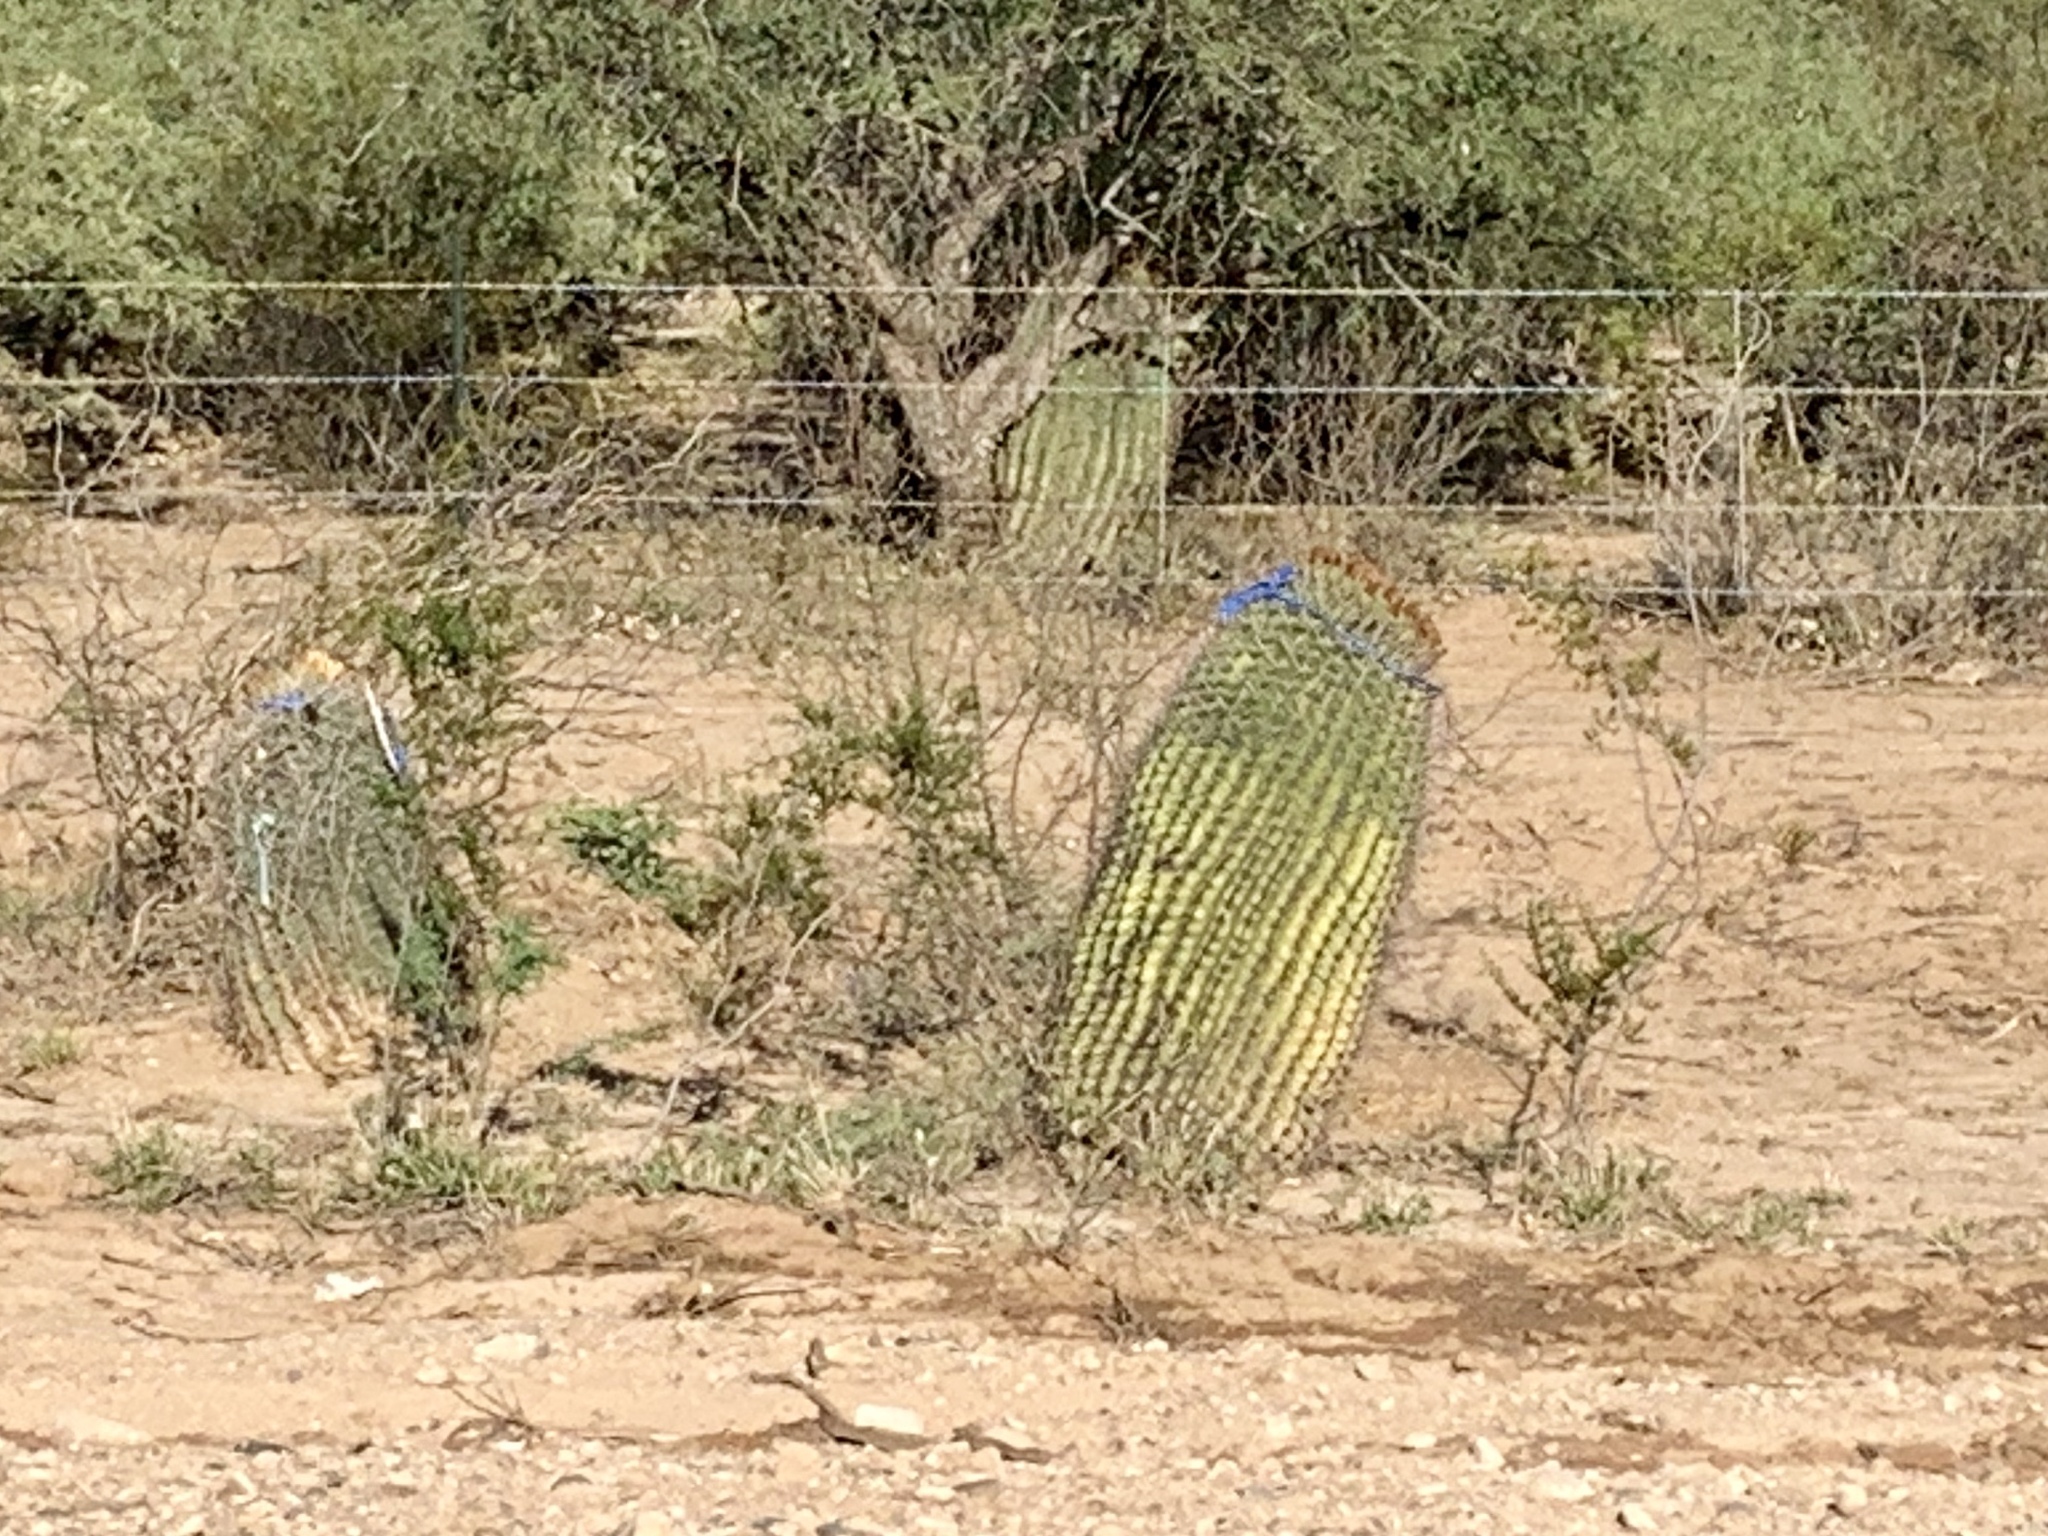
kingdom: Plantae
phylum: Tracheophyta
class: Magnoliopsida
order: Caryophyllales
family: Cactaceae
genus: Ferocactus
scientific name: Ferocactus wislizeni
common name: Candy barrel cactus
